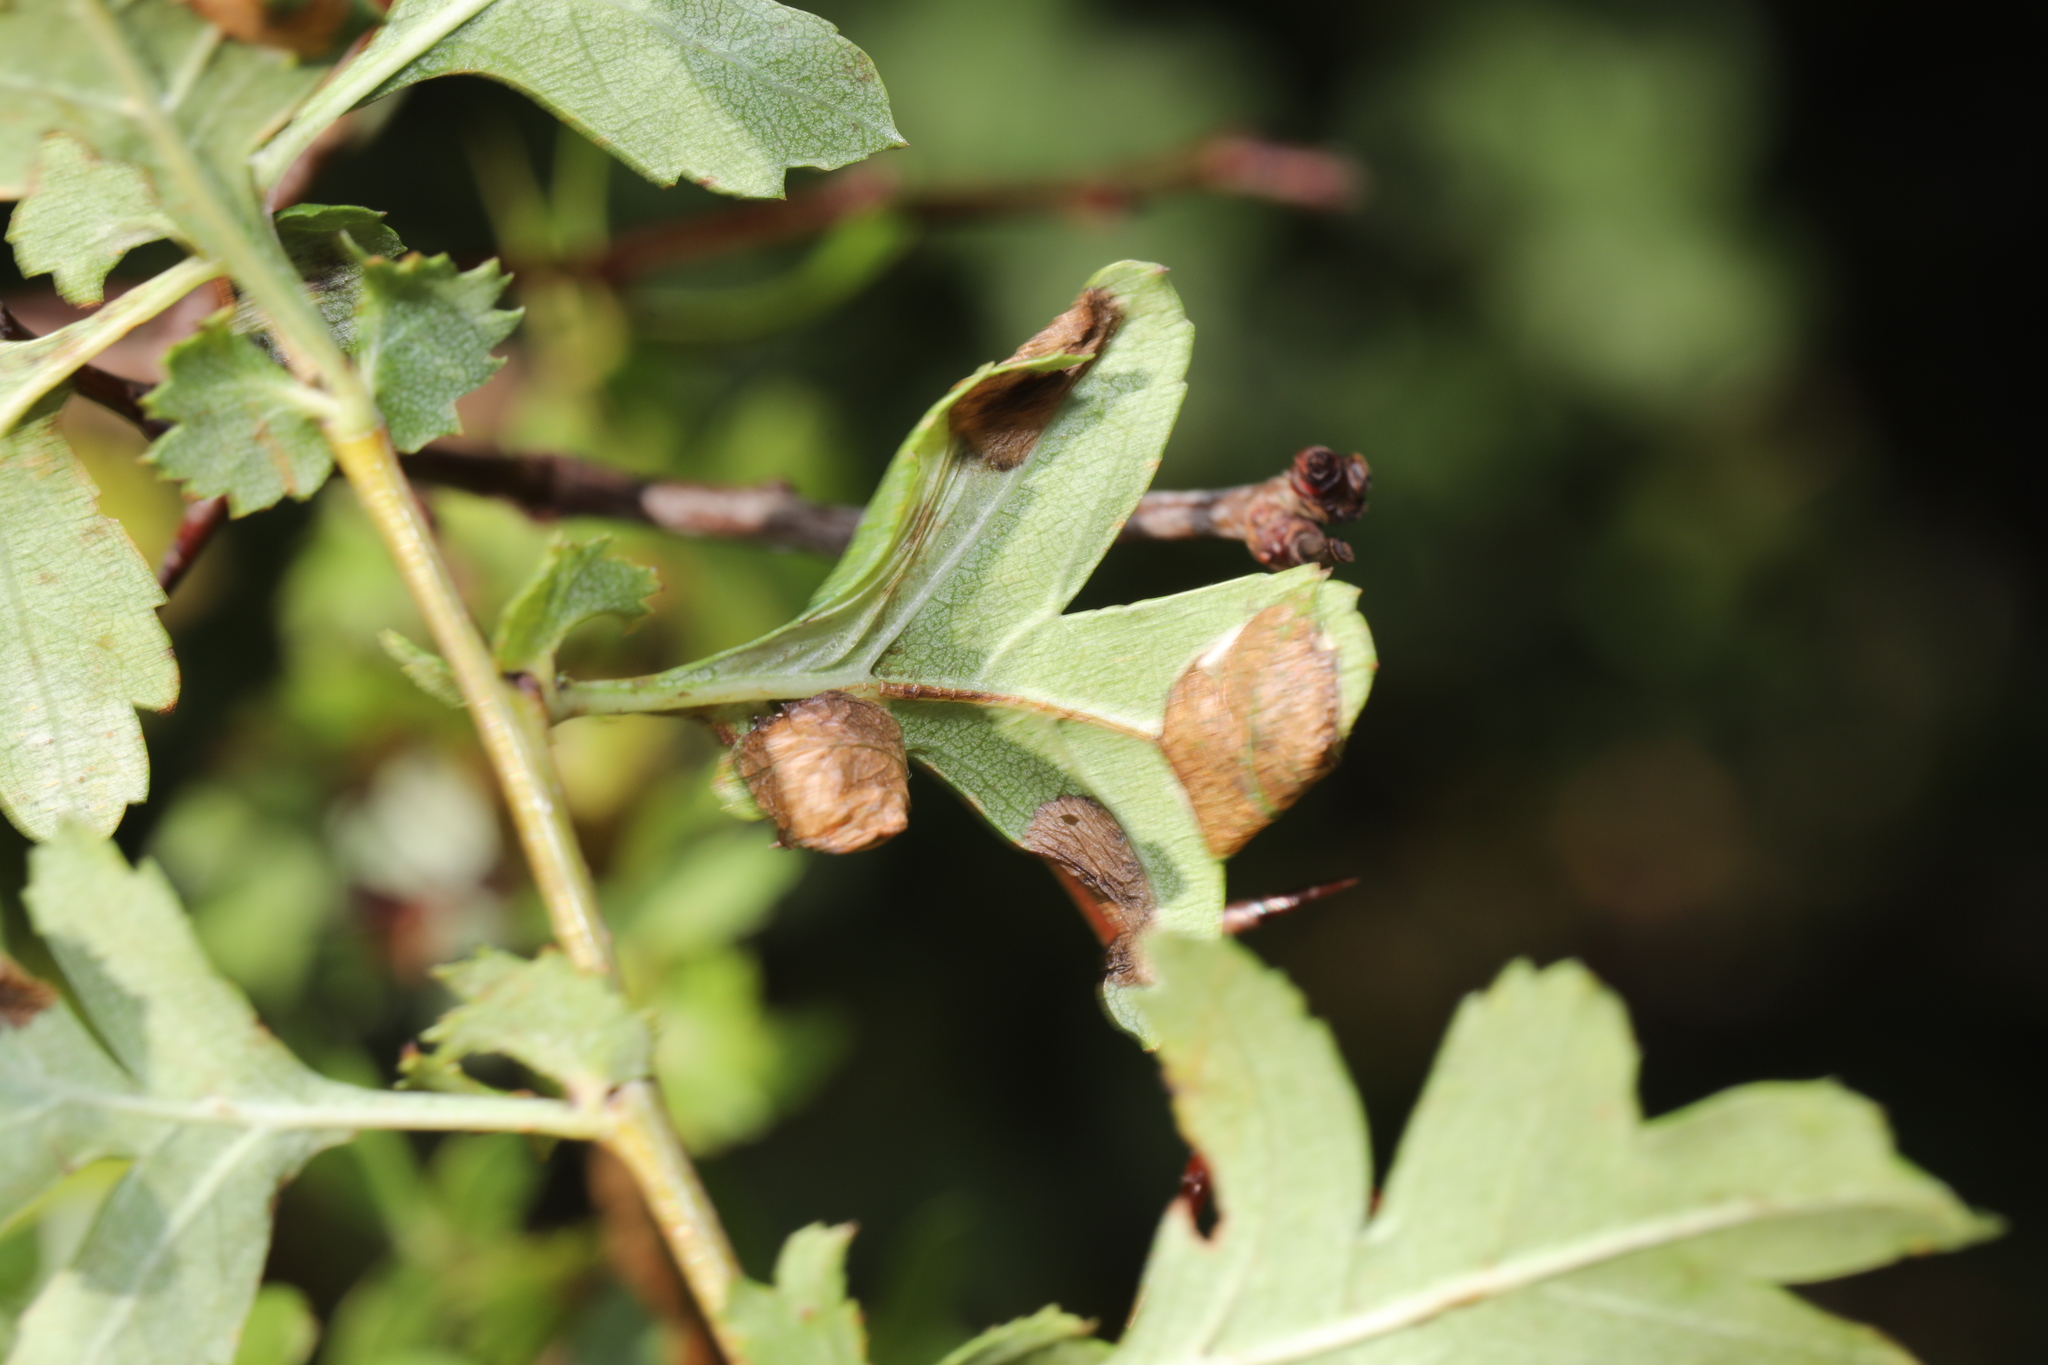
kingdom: Animalia
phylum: Arthropoda
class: Insecta
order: Lepidoptera
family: Gracillariidae
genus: Phyllonorycter
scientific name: Phyllonorycter oxyacanthae
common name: Common thorn midget
